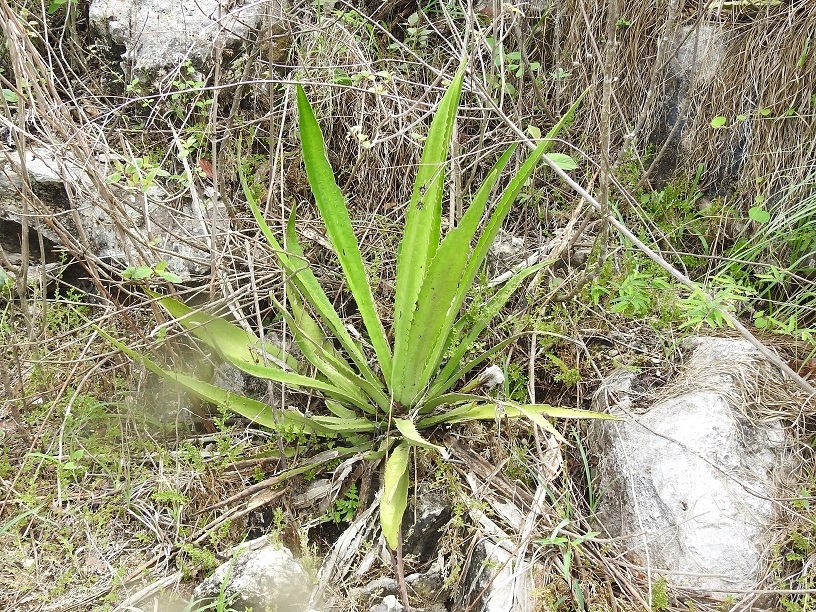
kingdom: Plantae
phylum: Tracheophyta
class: Liliopsida
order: Asparagales
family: Asparagaceae
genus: Furcraea
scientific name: Furcraea guatemalensis
